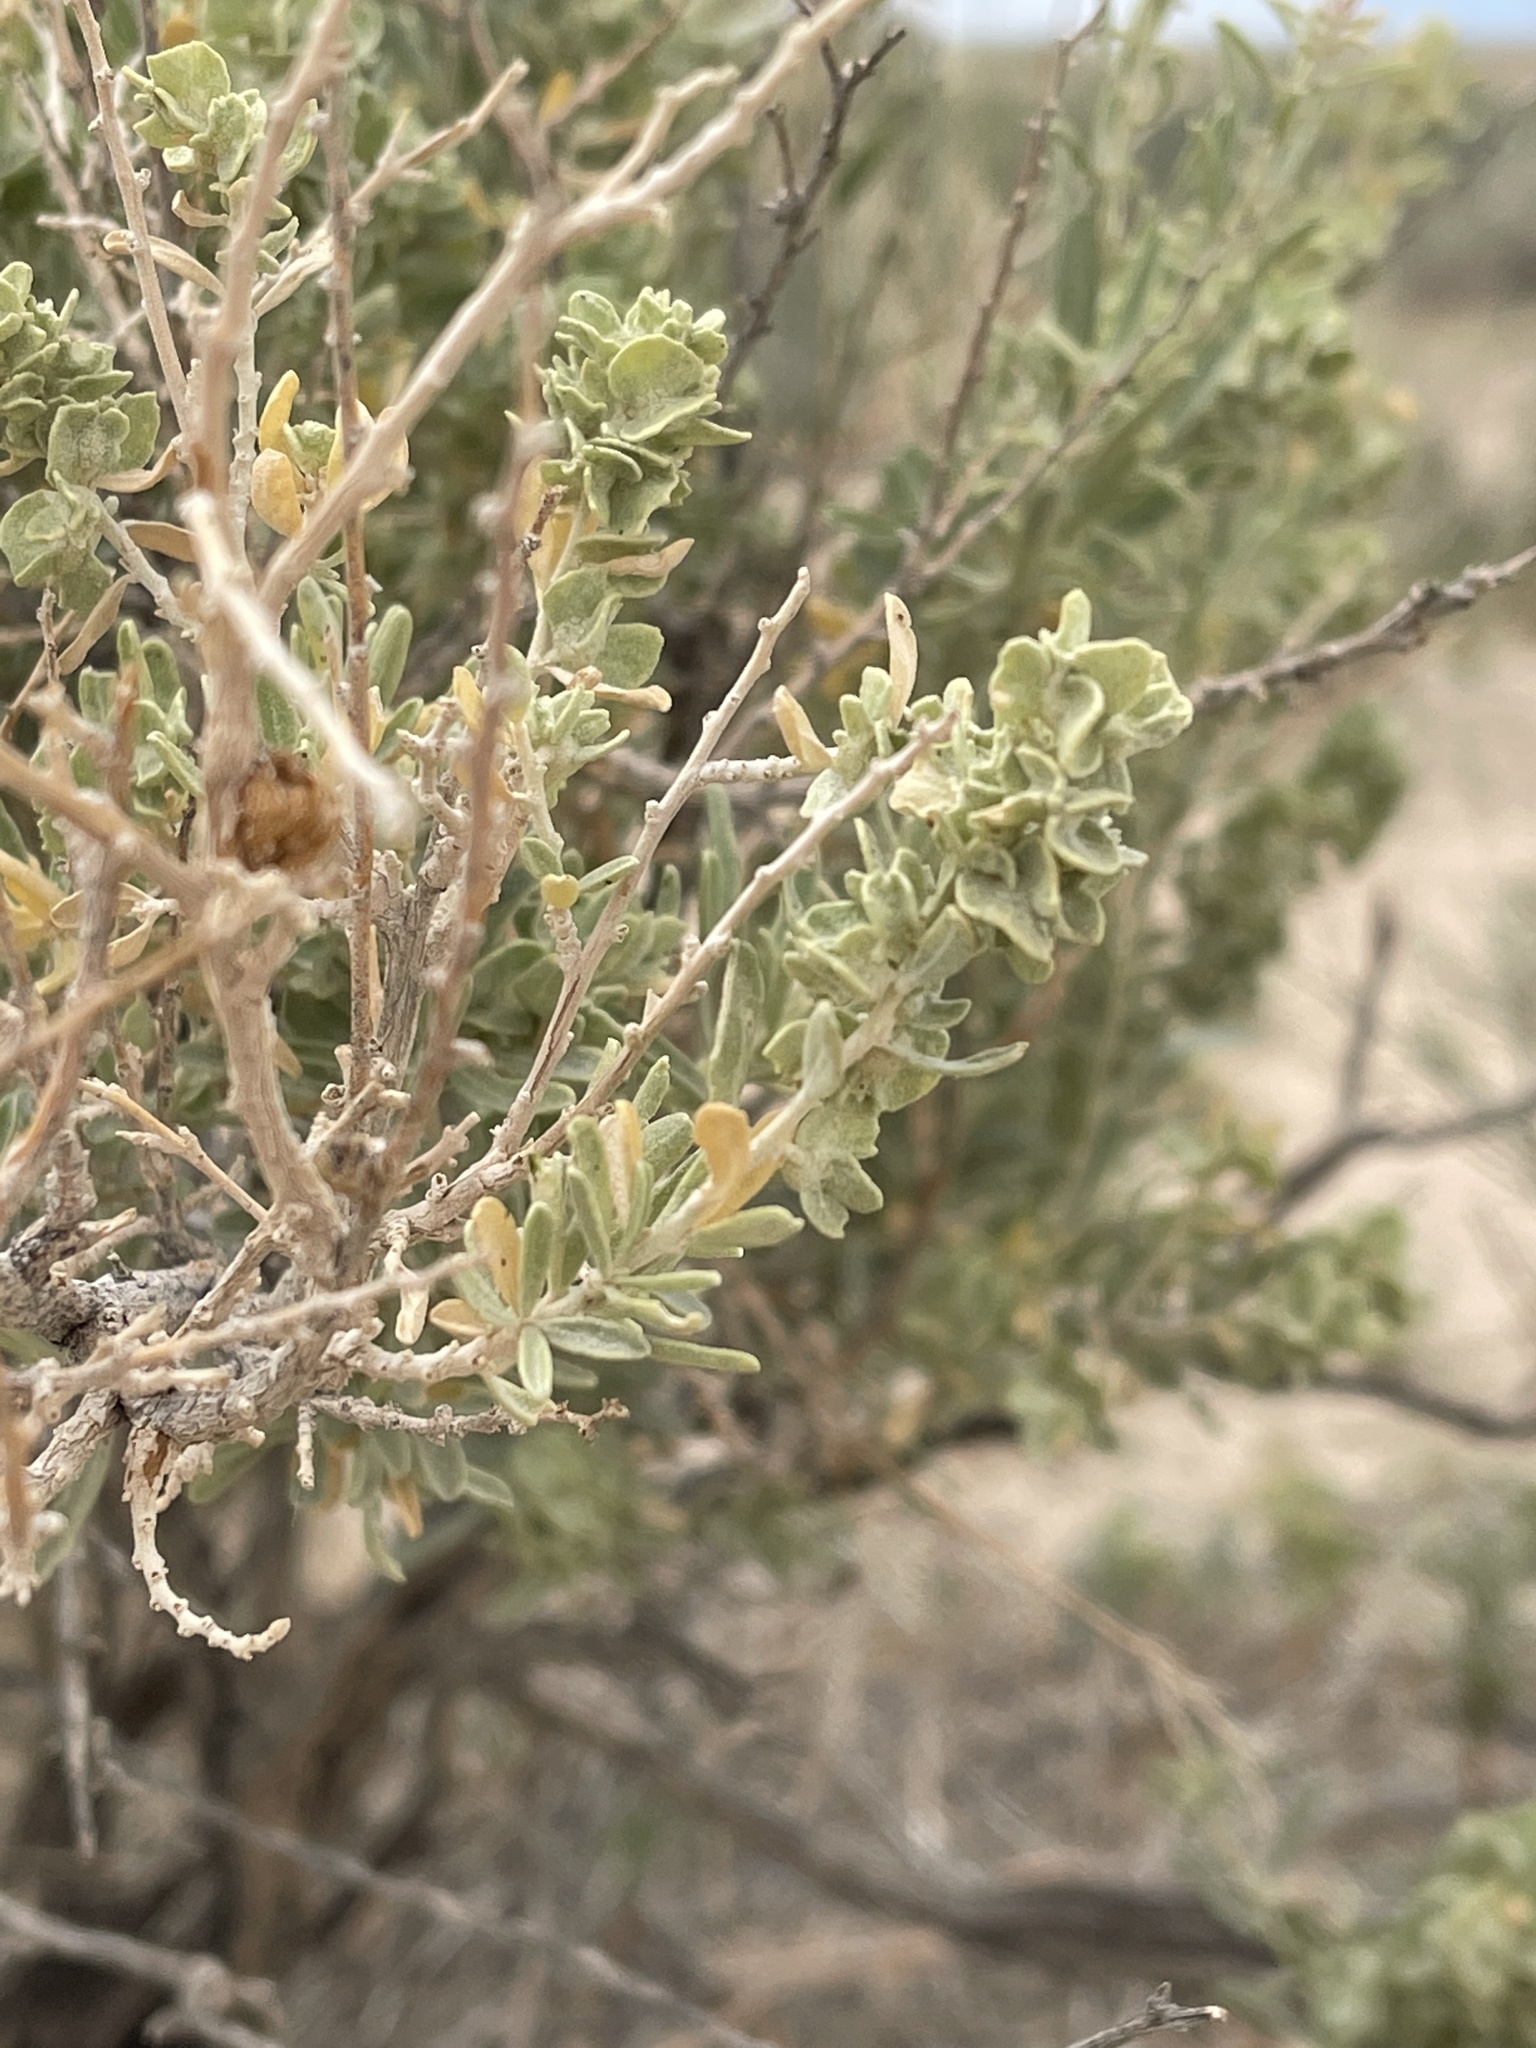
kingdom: Plantae
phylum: Tracheophyta
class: Magnoliopsida
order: Caryophyllales
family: Amaranthaceae
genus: Atriplex
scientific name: Atriplex canescens
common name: Four-wing saltbush
